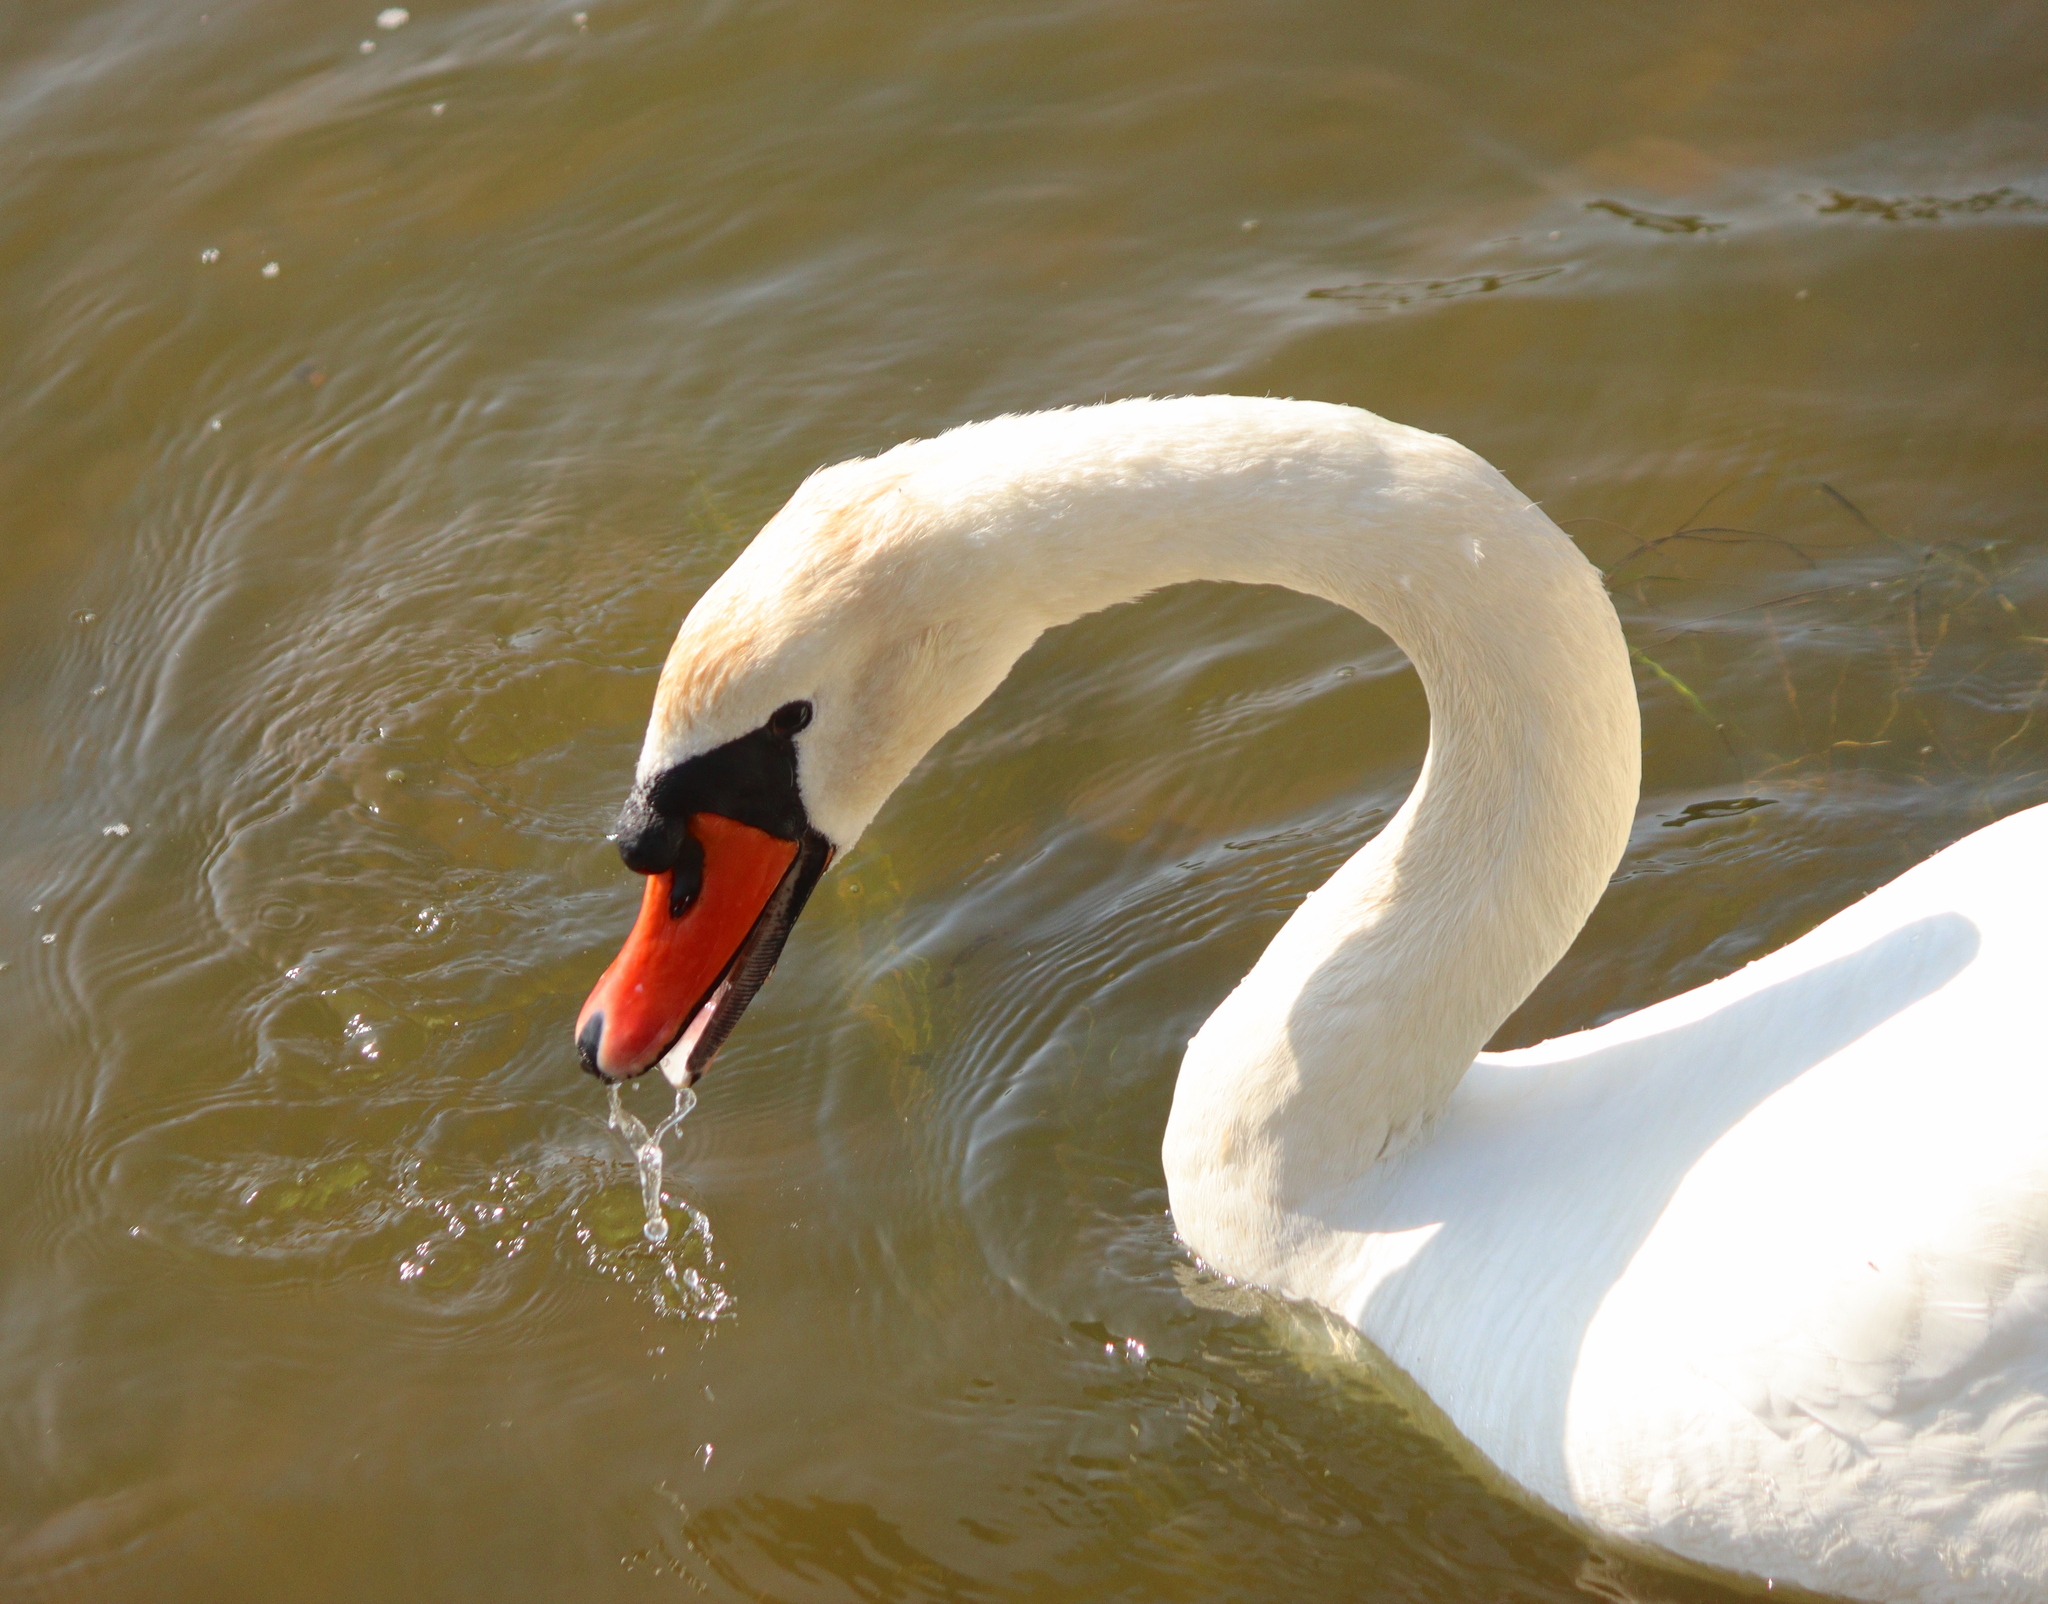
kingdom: Animalia
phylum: Chordata
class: Aves
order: Anseriformes
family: Anatidae
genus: Cygnus
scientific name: Cygnus olor
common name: Mute swan
